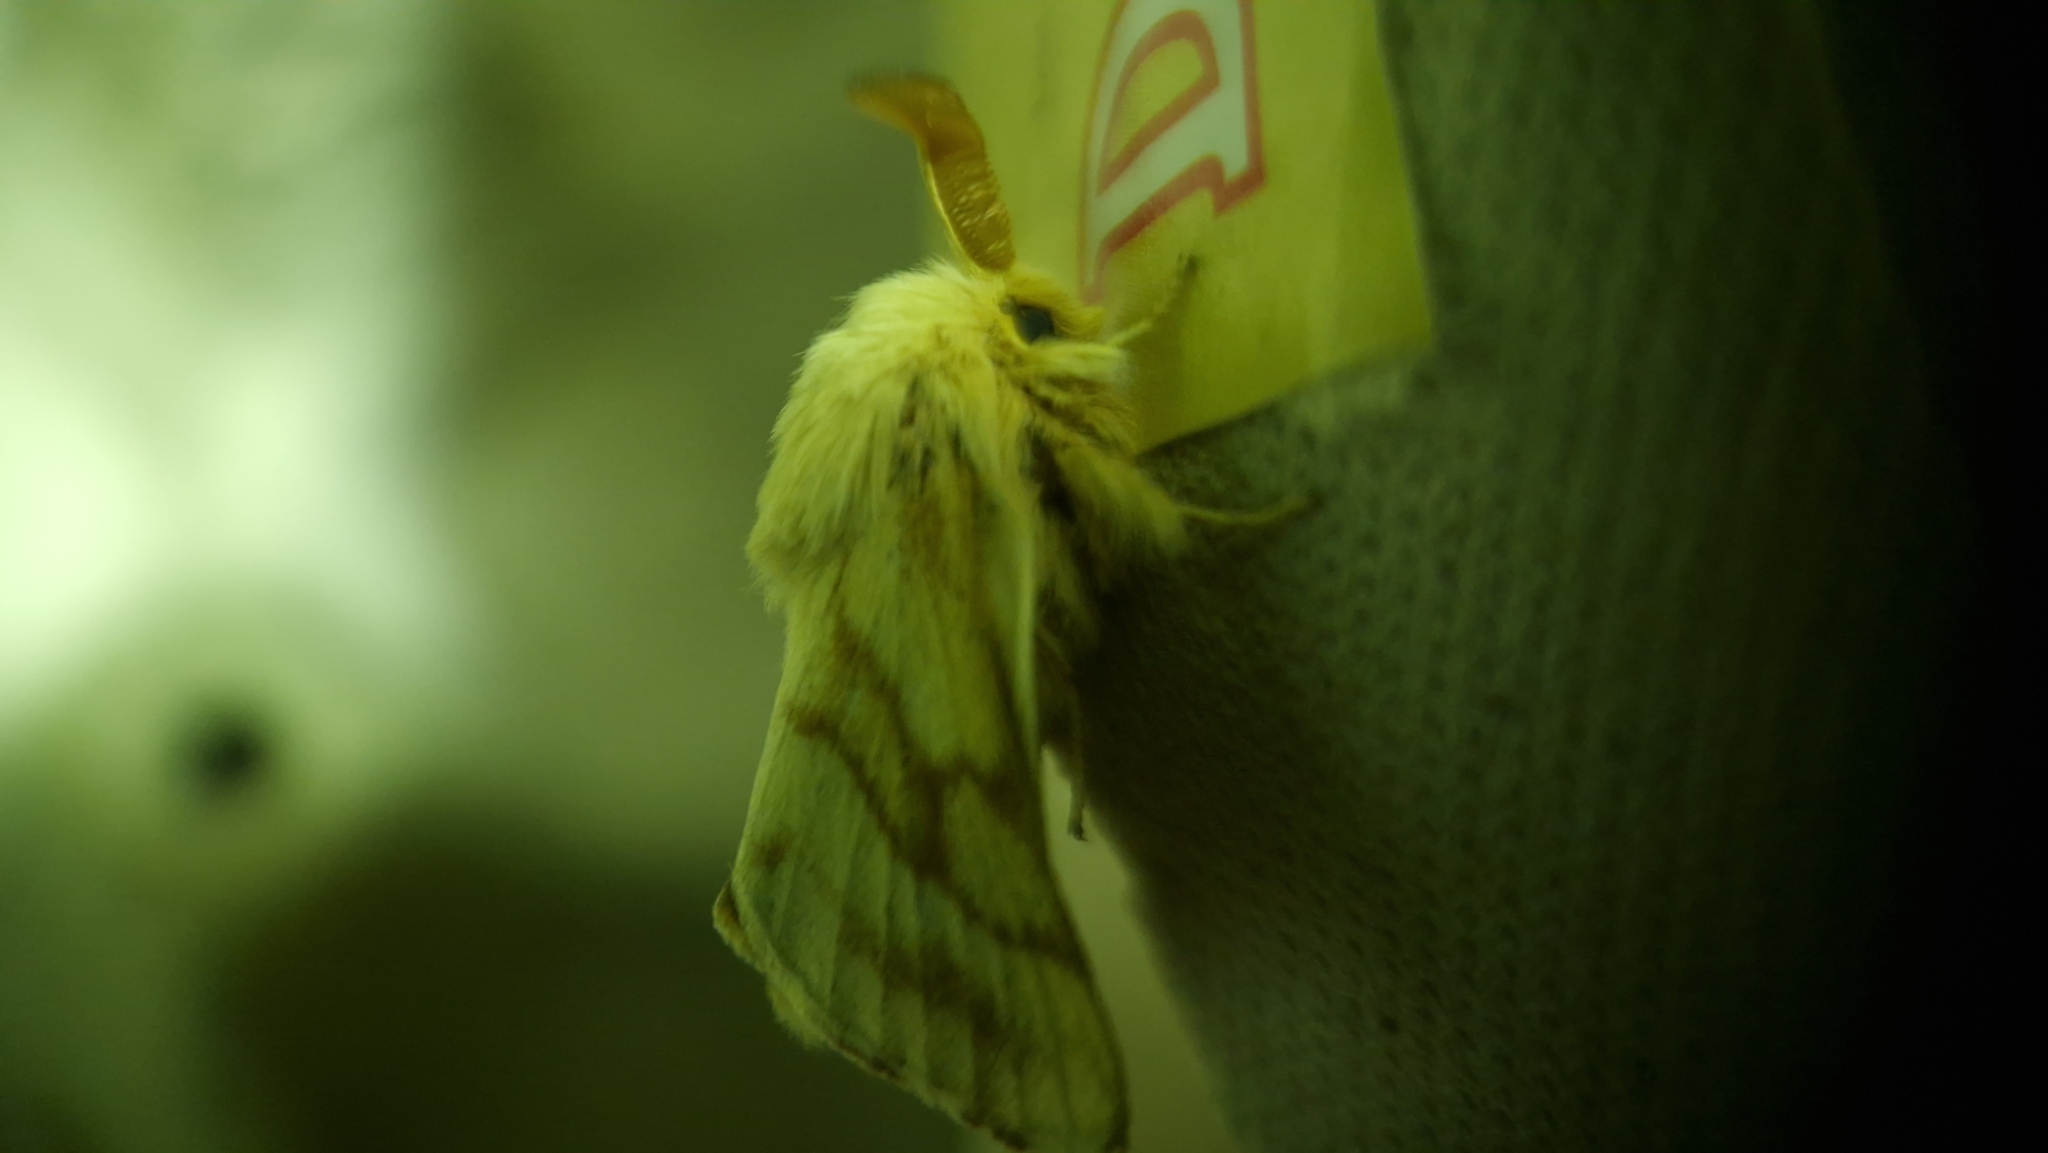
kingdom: Animalia
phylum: Arthropoda
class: Insecta
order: Lepidoptera
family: Lasiocampidae
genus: Malacosoma
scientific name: Malacosoma castrense
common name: Ground lackey
